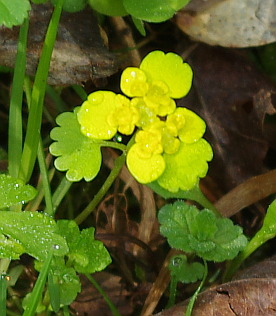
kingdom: Plantae
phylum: Tracheophyta
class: Magnoliopsida
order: Saxifragales
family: Saxifragaceae
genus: Chrysosplenium
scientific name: Chrysosplenium alternifolium
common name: Alternate-leaved golden-saxifrage
